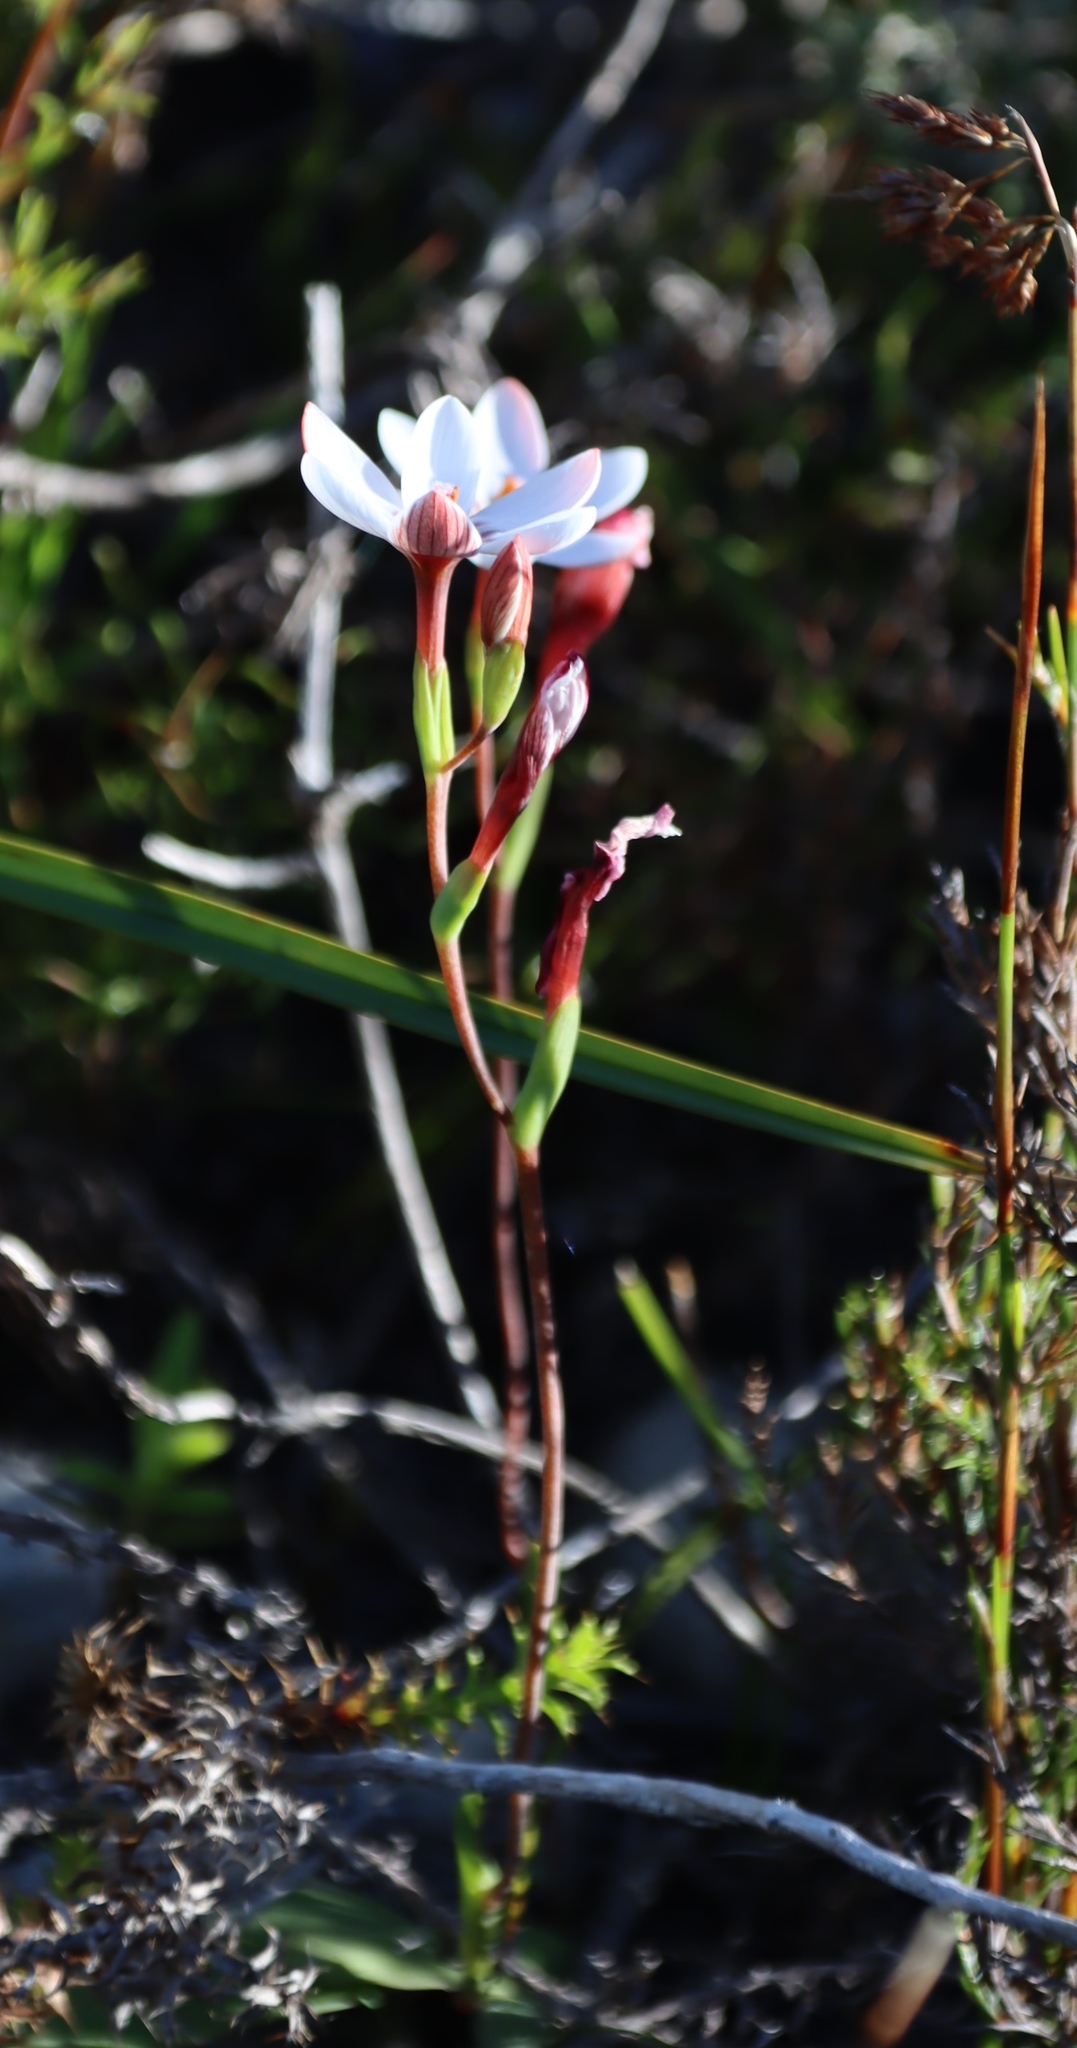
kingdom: Plantae
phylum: Tracheophyta
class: Liliopsida
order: Asparagales
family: Iridaceae
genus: Geissorhiza
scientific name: Geissorhiza ovata
